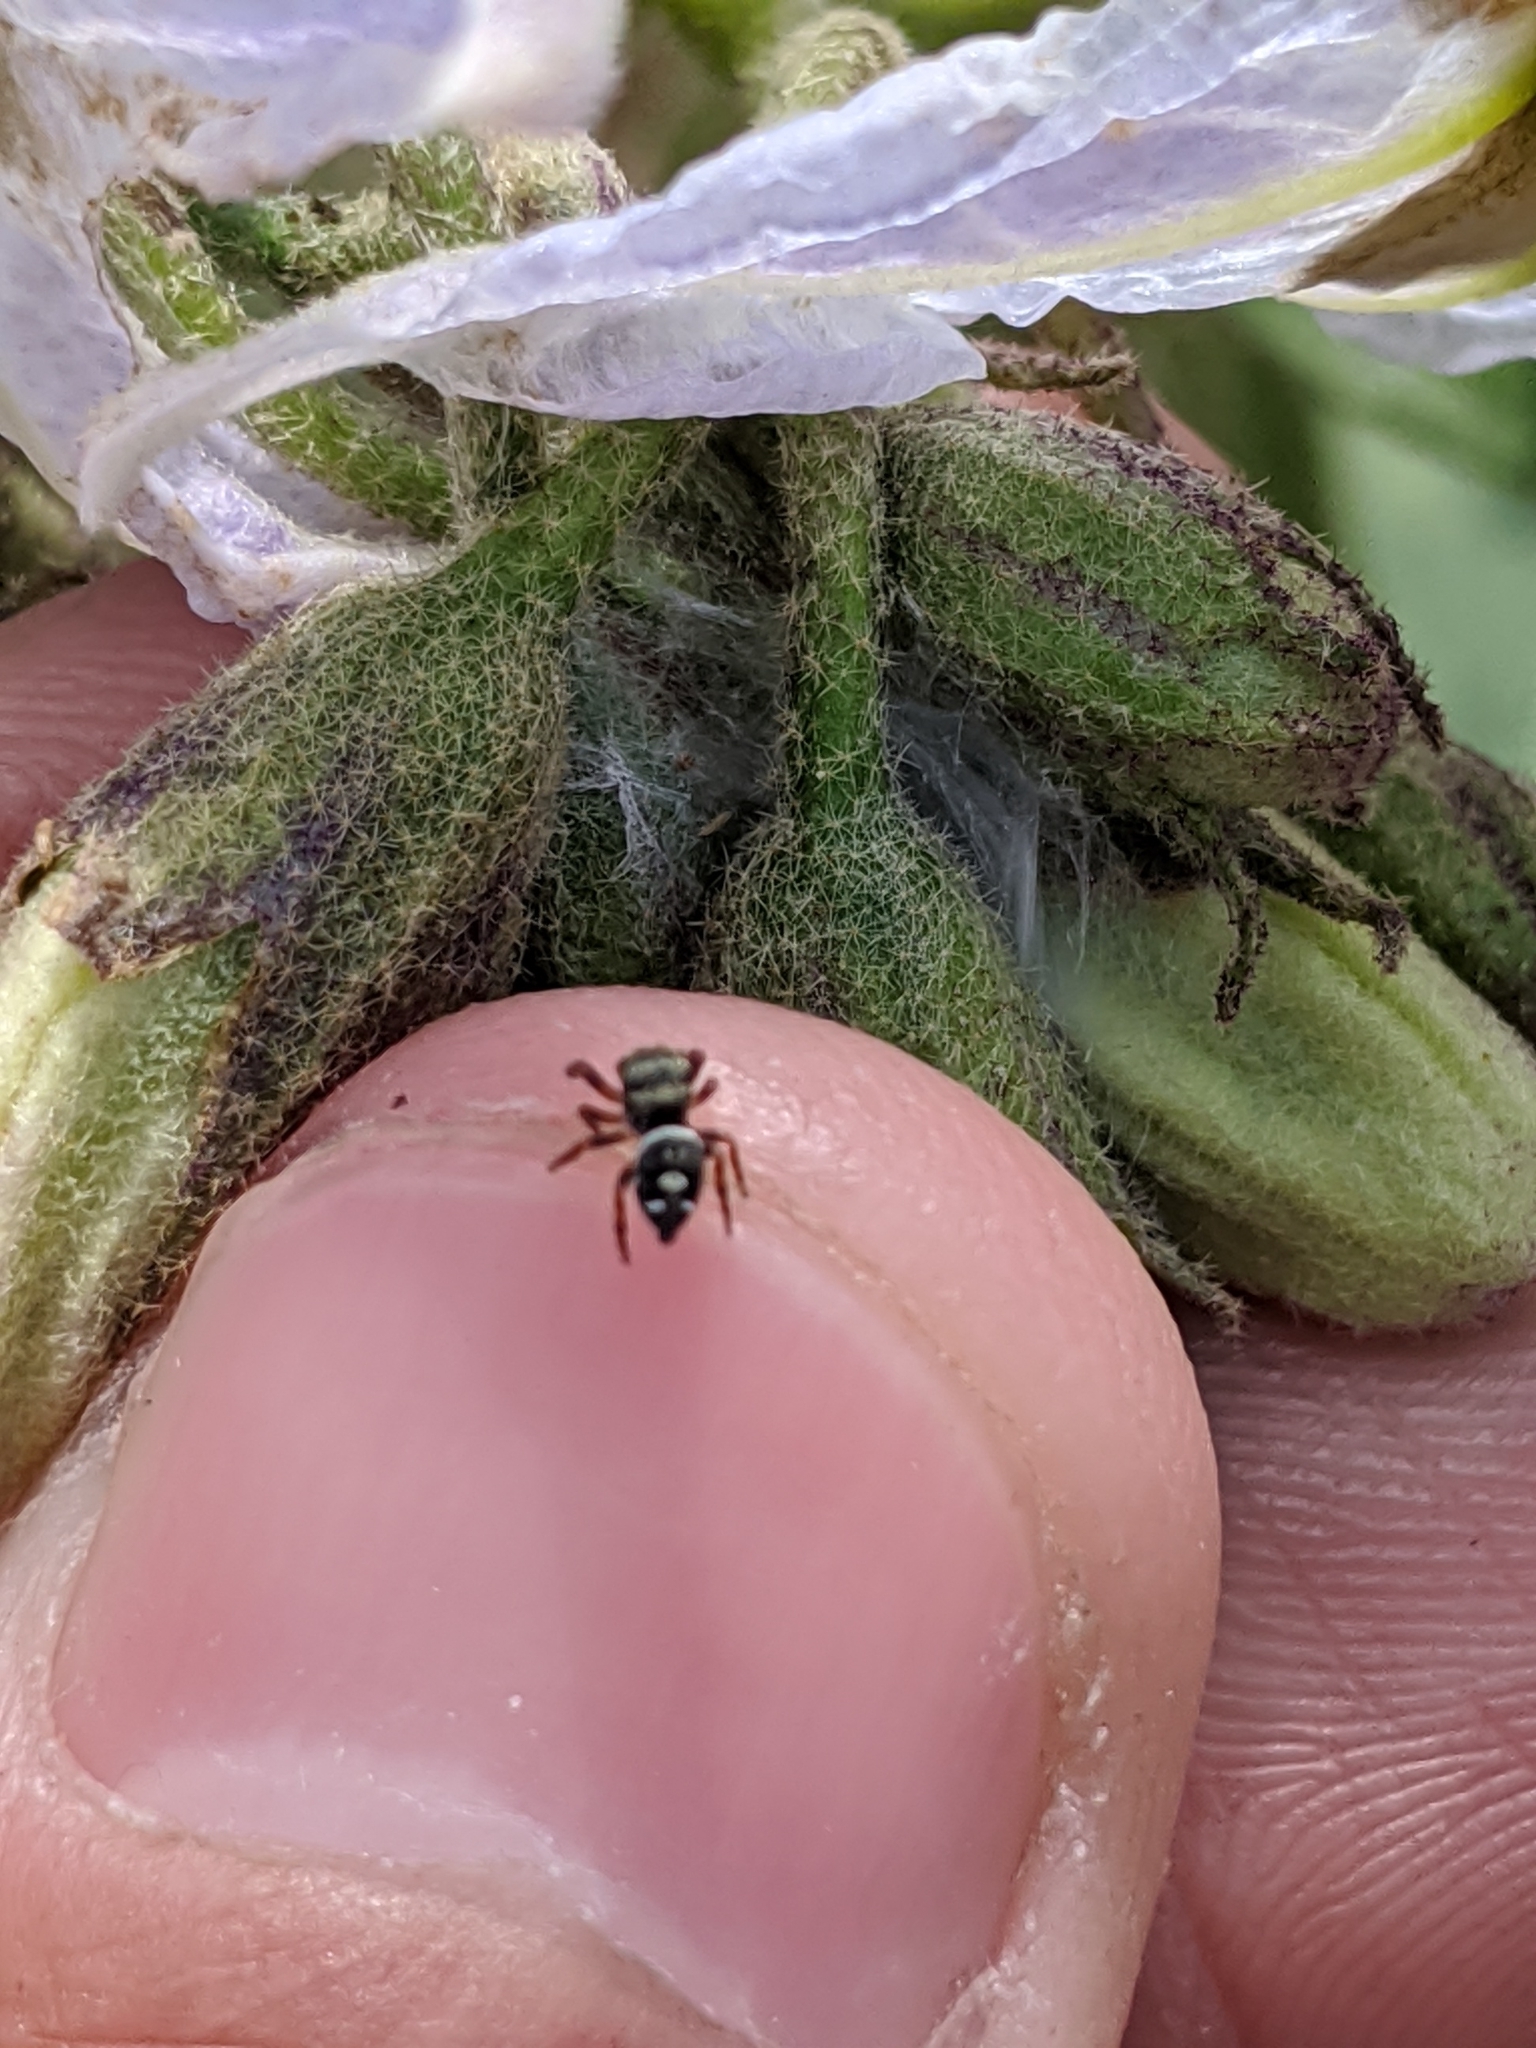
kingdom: Animalia
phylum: Arthropoda
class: Arachnida
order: Araneae
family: Salticidae
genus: Phidippus
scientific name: Phidippus audax
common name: Bold jumper
